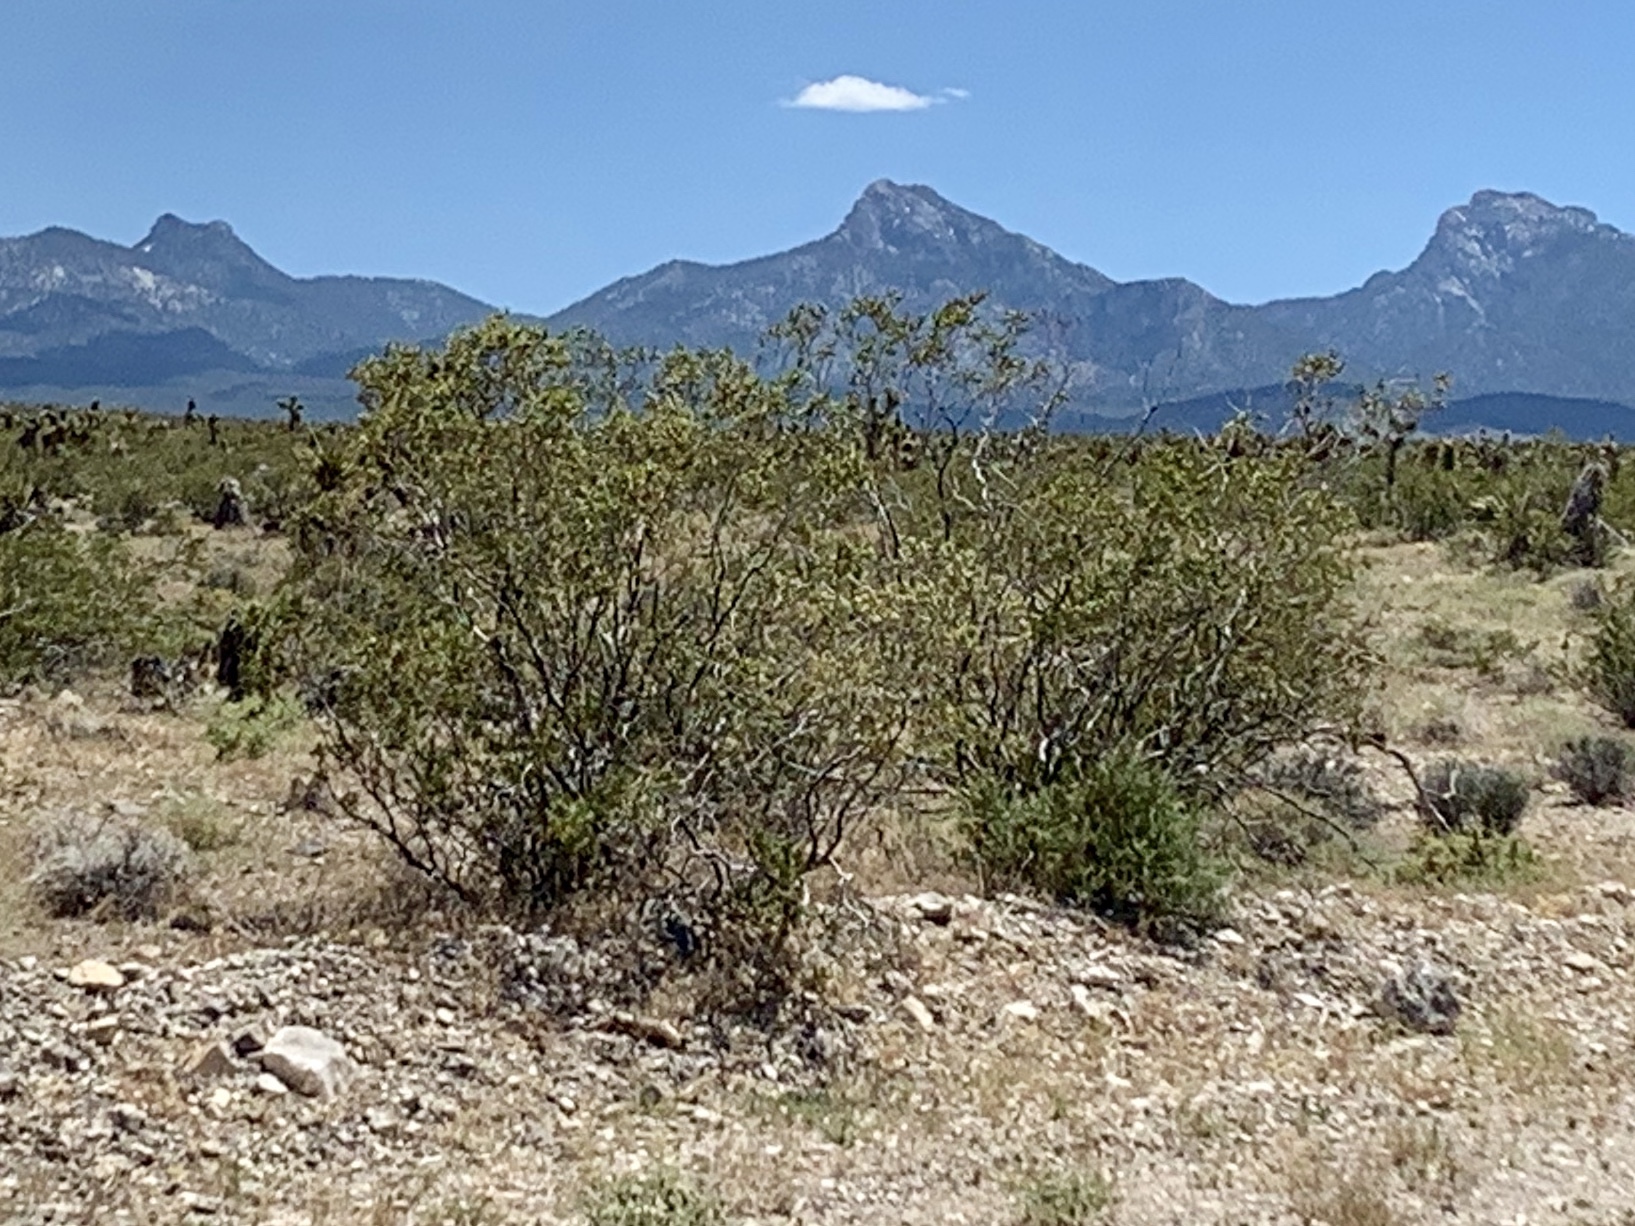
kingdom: Plantae
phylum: Tracheophyta
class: Magnoliopsida
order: Zygophyllales
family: Zygophyllaceae
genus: Larrea
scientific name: Larrea tridentata
